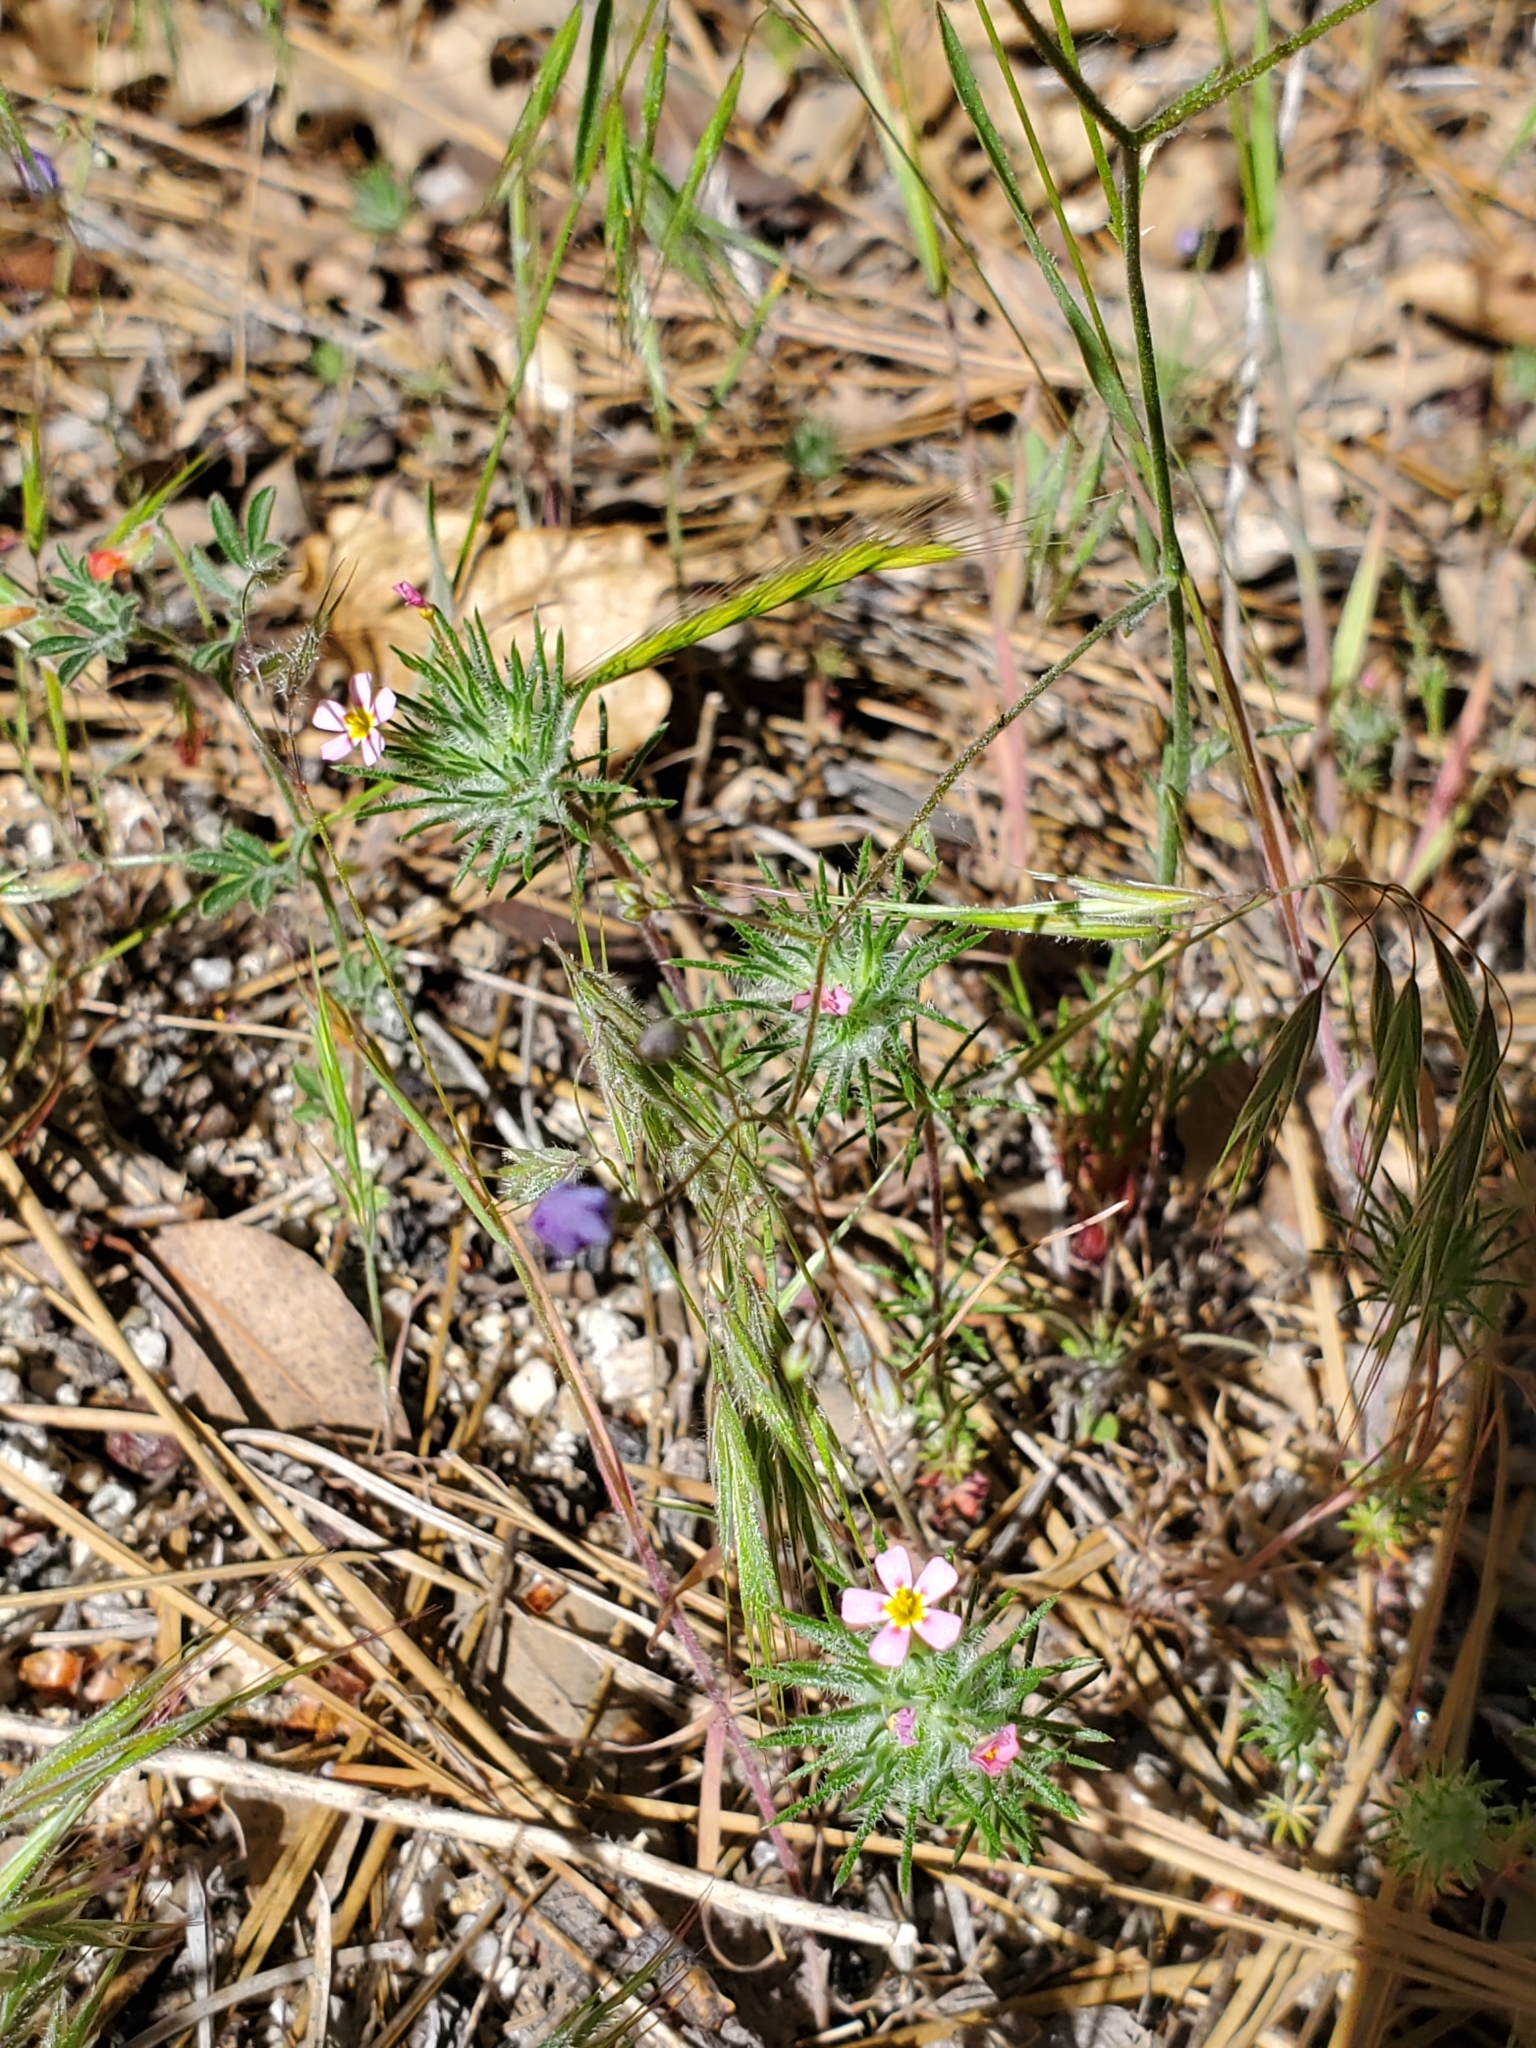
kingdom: Plantae
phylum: Tracheophyta
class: Magnoliopsida
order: Ericales
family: Polemoniaceae
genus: Leptosiphon
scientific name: Leptosiphon ciliatus
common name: Whiskerbrush
